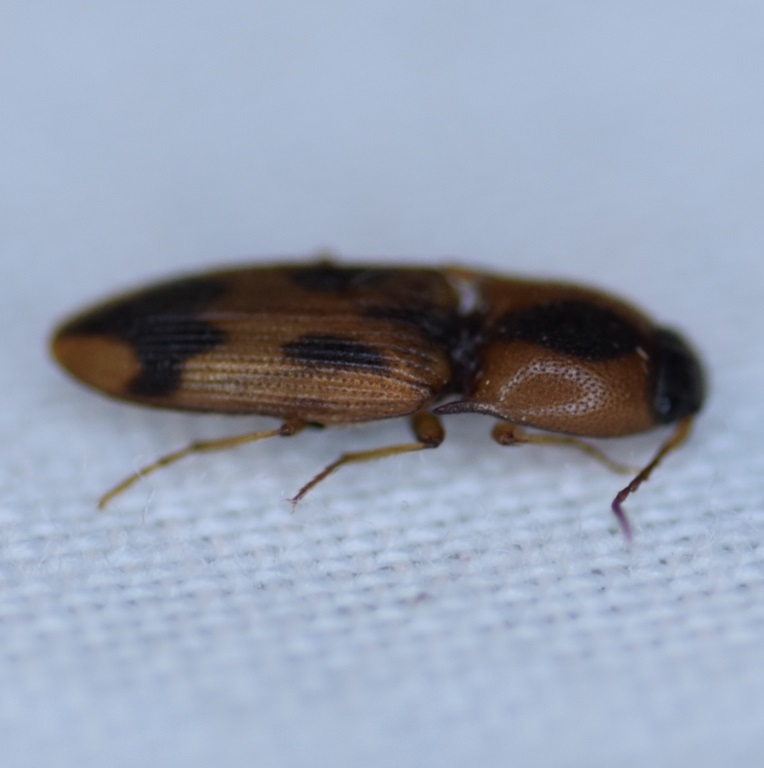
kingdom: Animalia
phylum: Arthropoda
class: Insecta
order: Coleoptera
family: Elateridae
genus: Aeolus
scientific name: Aeolus mellillus
